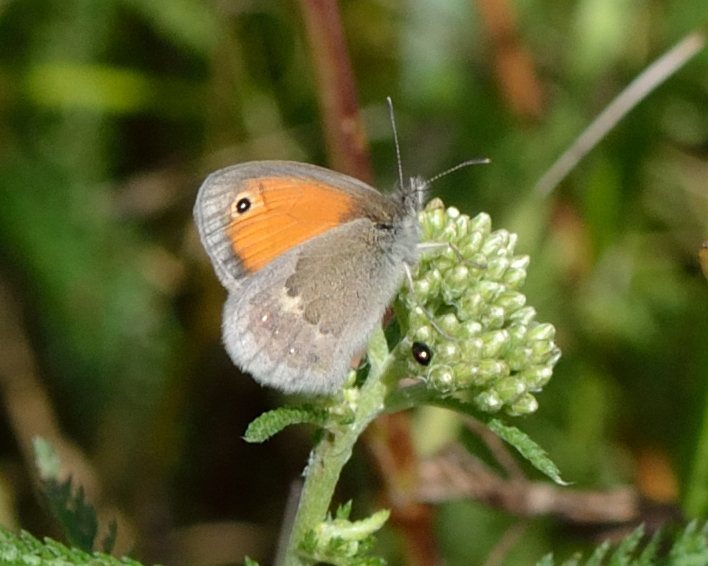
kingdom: Animalia
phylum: Arthropoda
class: Insecta
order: Lepidoptera
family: Nymphalidae
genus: Coenonympha
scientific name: Coenonympha pamphilus
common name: Small heath
